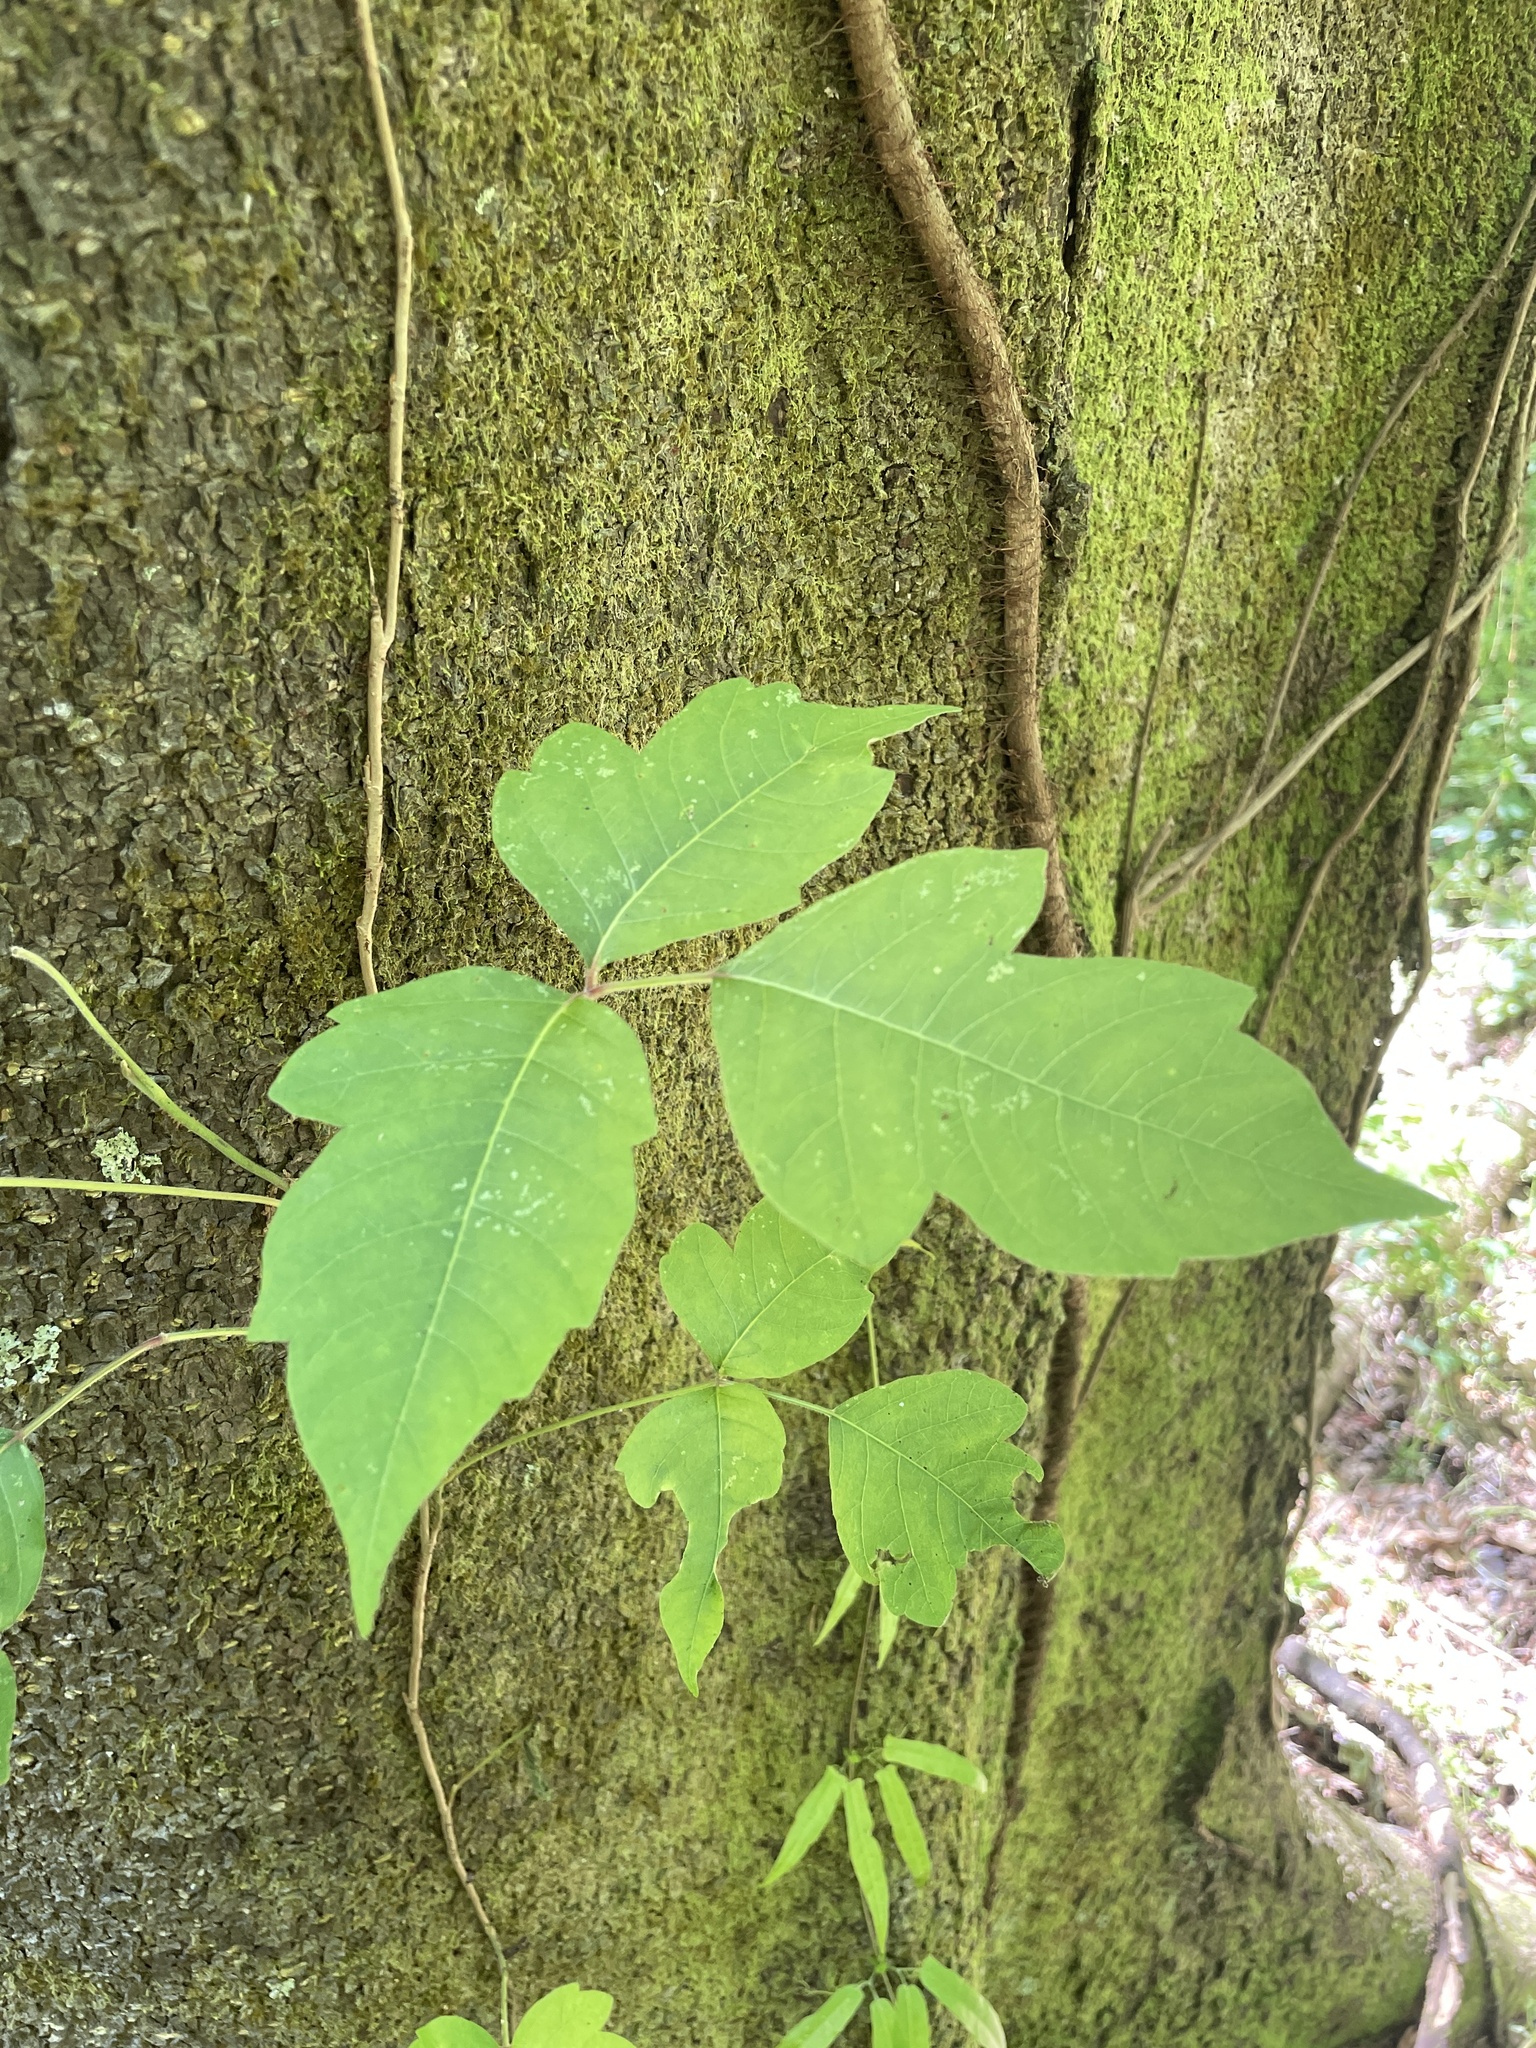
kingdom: Plantae
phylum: Tracheophyta
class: Magnoliopsida
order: Sapindales
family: Anacardiaceae
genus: Toxicodendron
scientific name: Toxicodendron radicans
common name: Poison ivy
